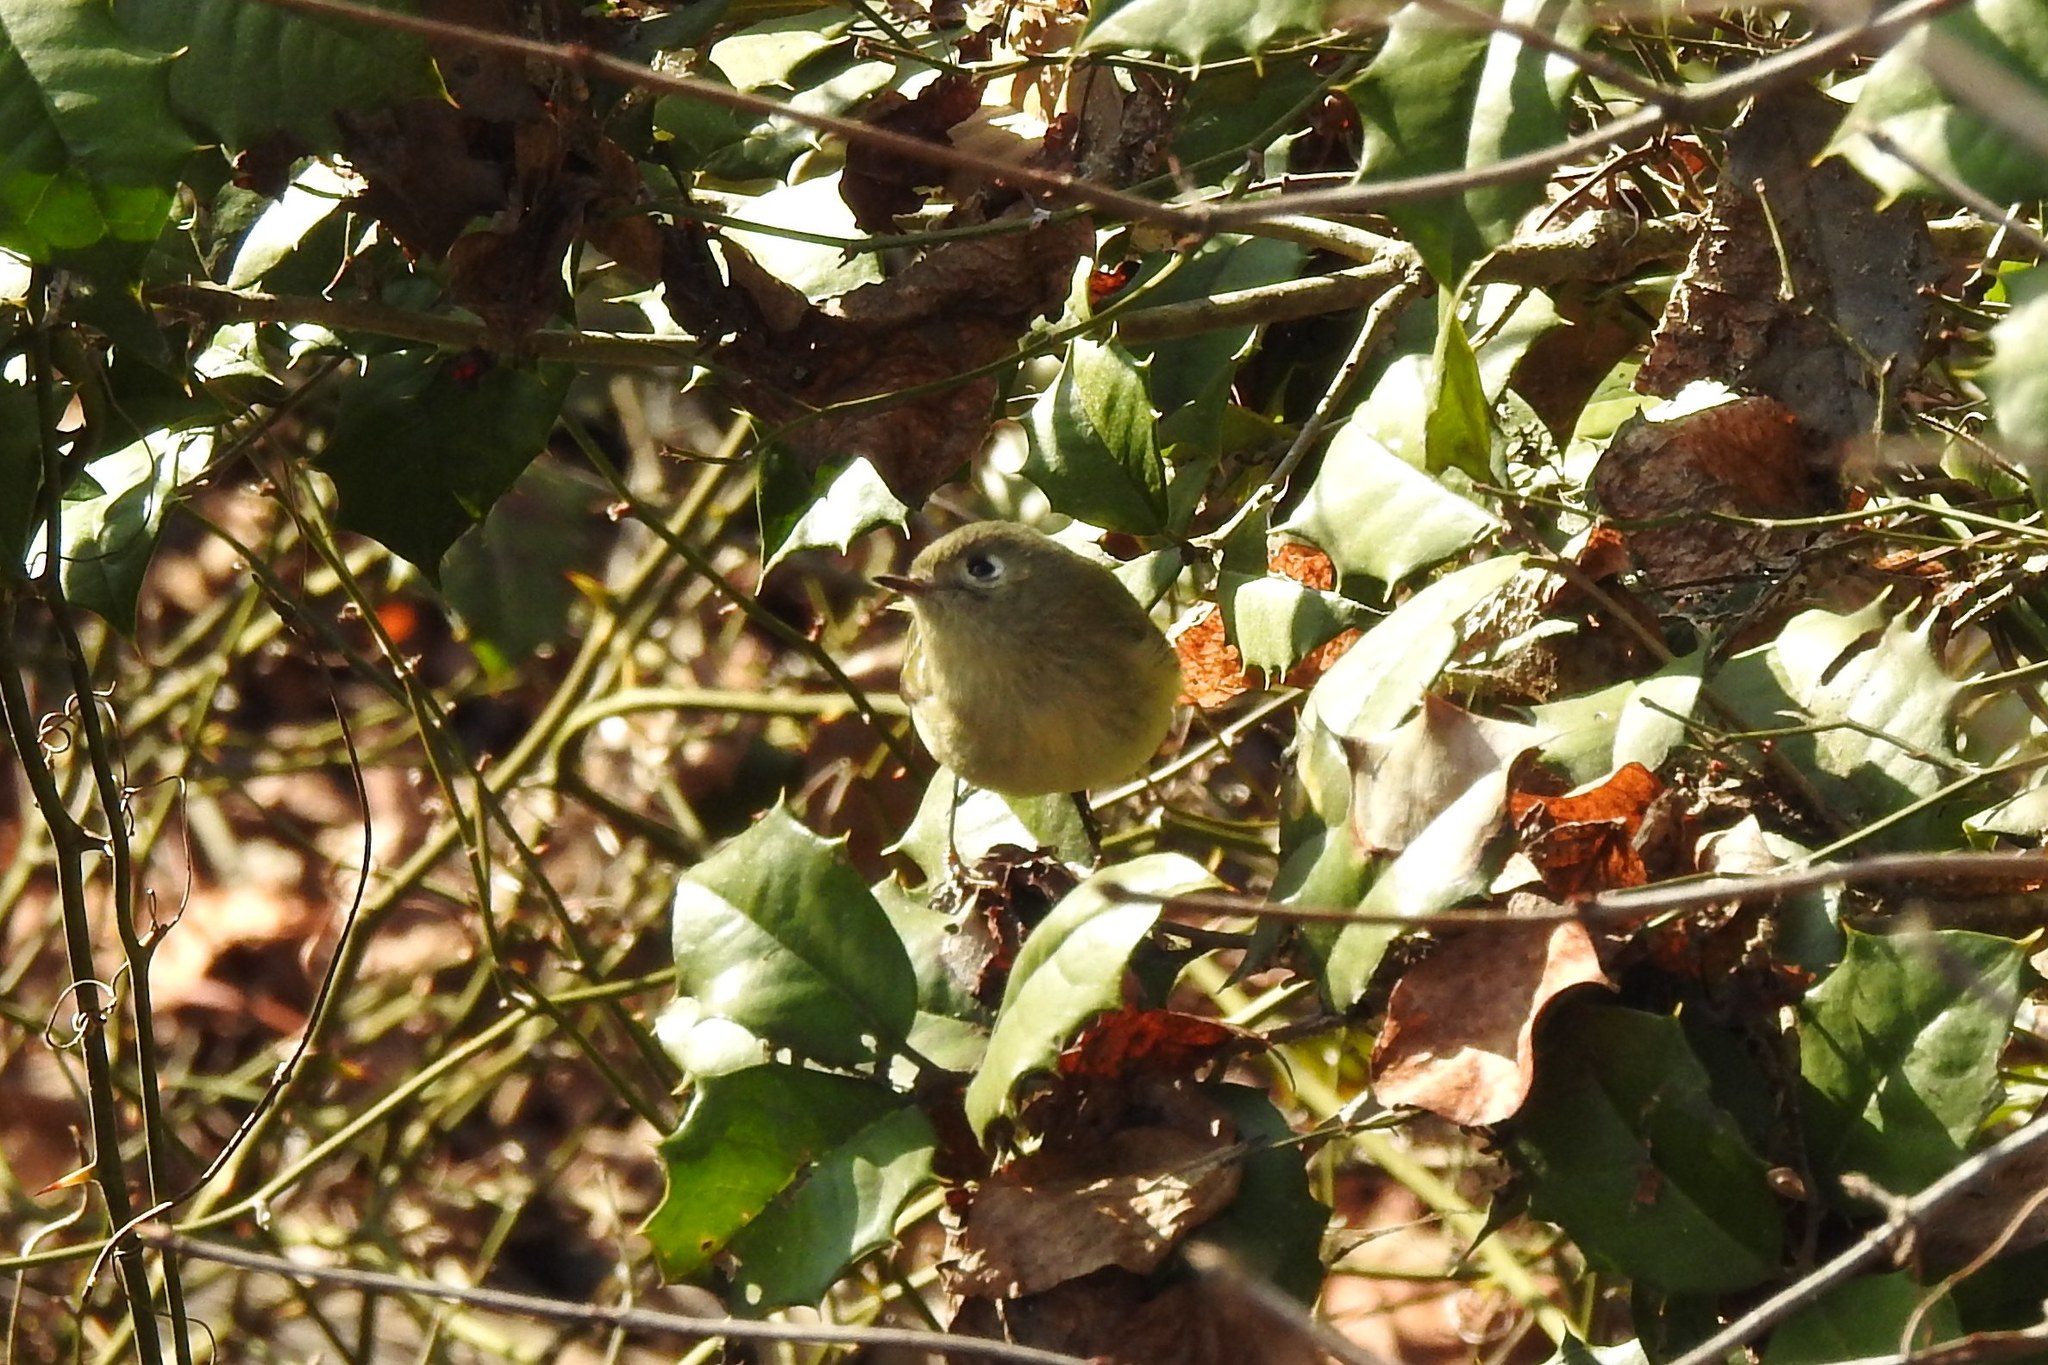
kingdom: Animalia
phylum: Chordata
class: Aves
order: Passeriformes
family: Regulidae
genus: Regulus
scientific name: Regulus calendula
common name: Ruby-crowned kinglet
